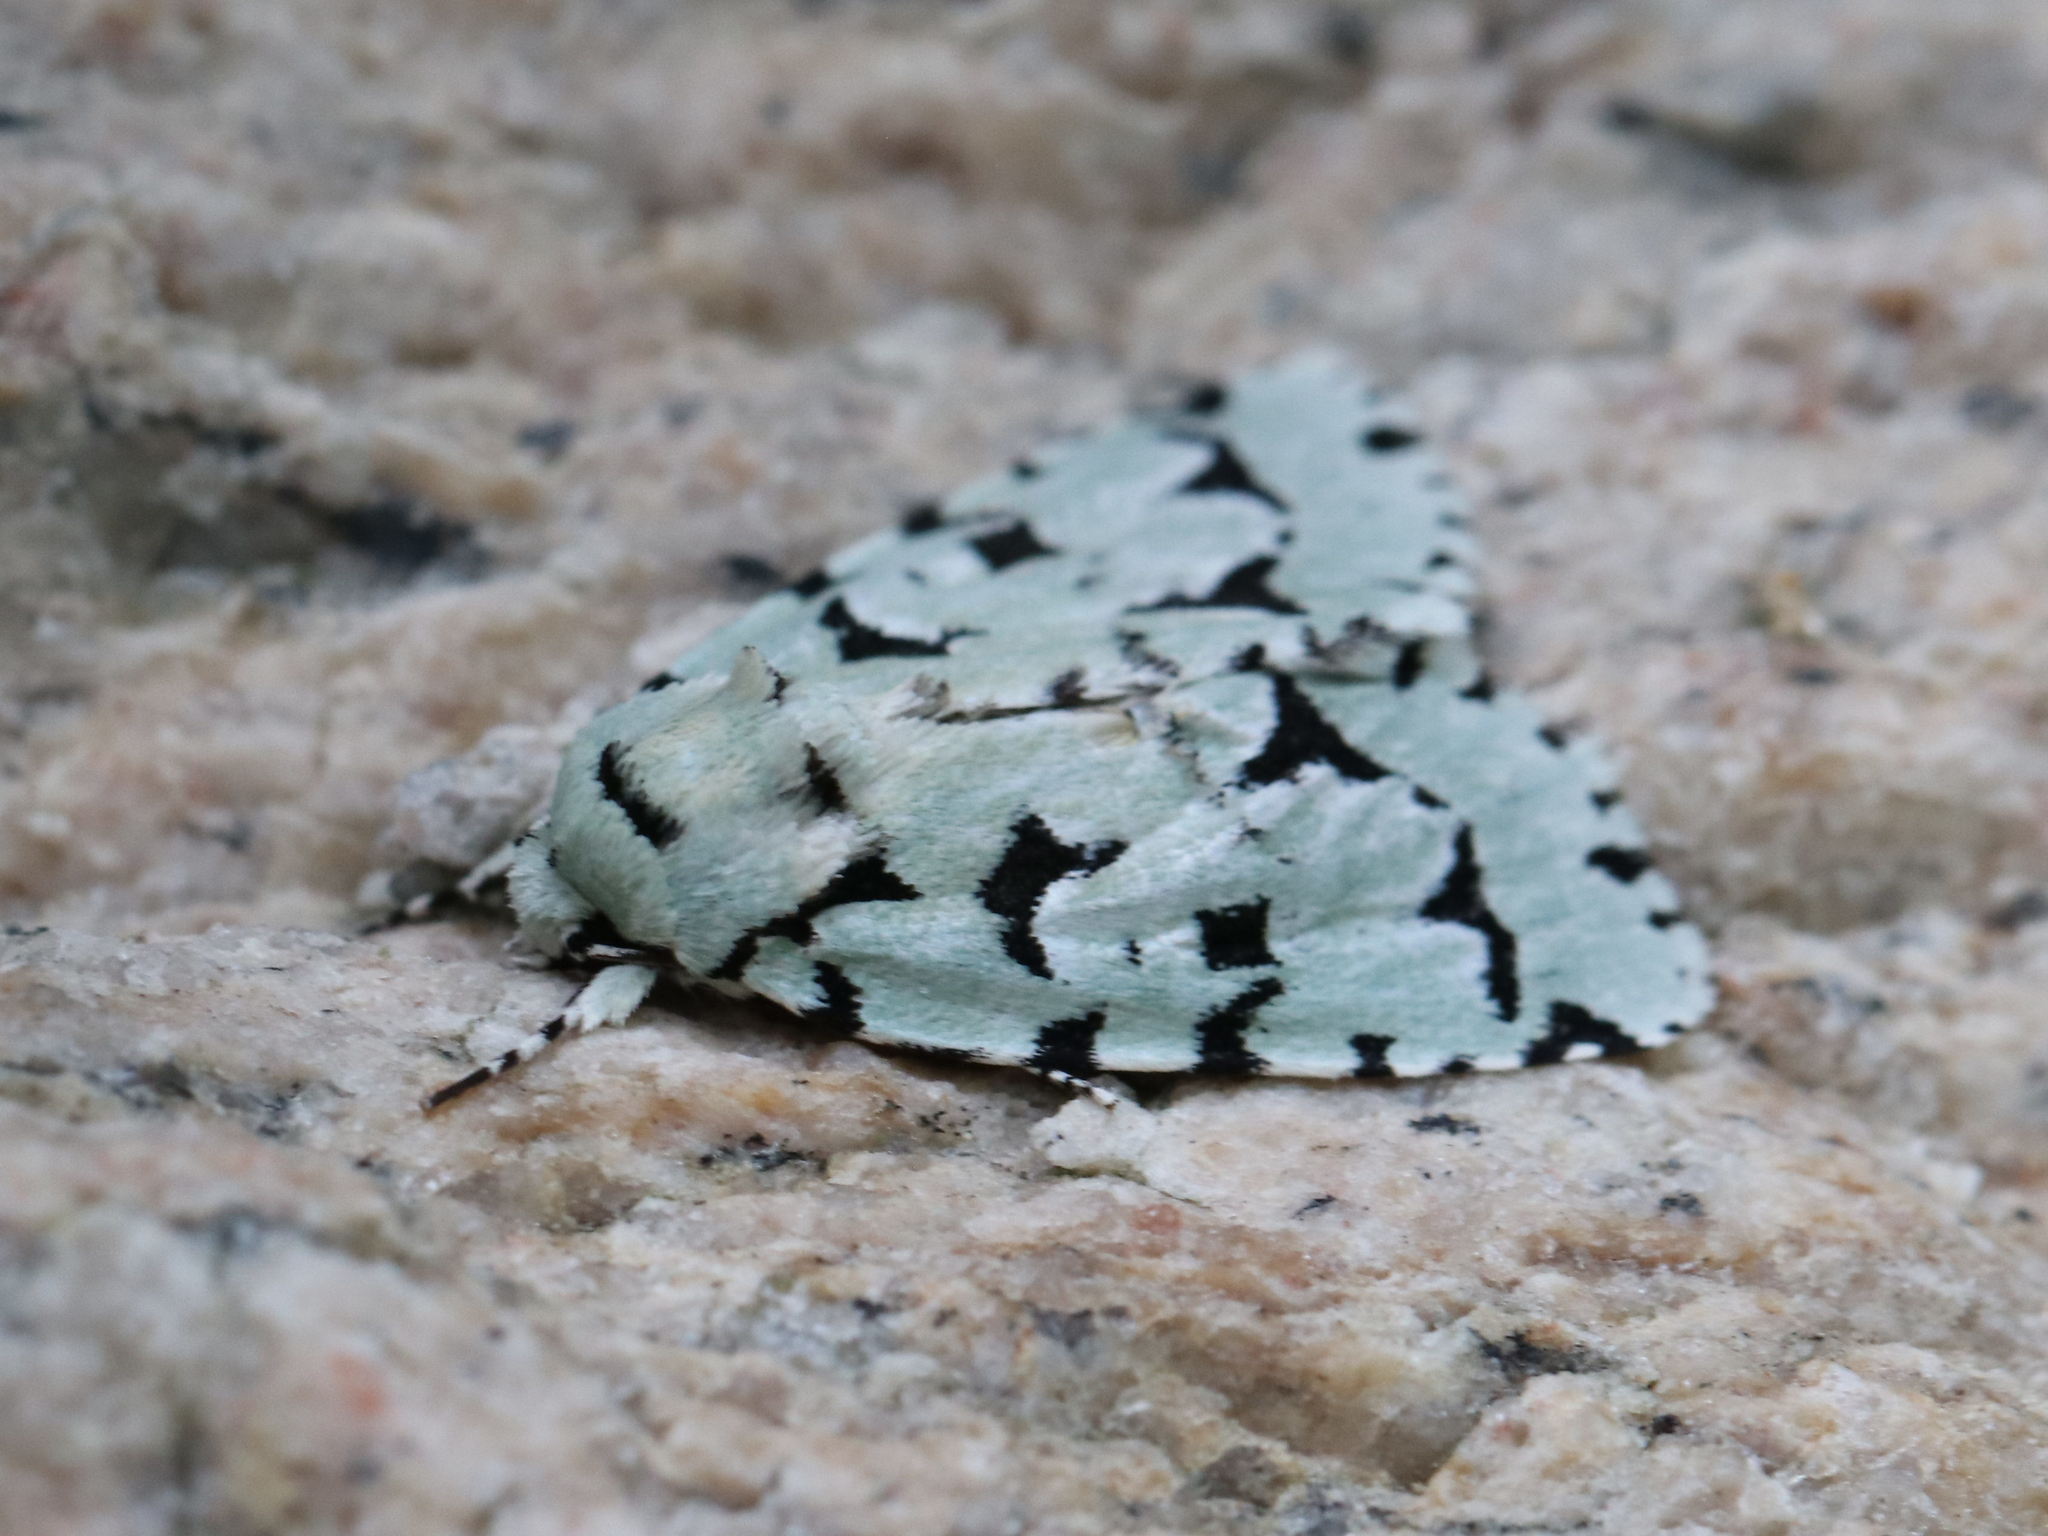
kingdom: Animalia
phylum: Arthropoda
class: Insecta
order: Lepidoptera
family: Noctuidae
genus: Acronicta
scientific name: Acronicta fallax
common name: Green marvel
